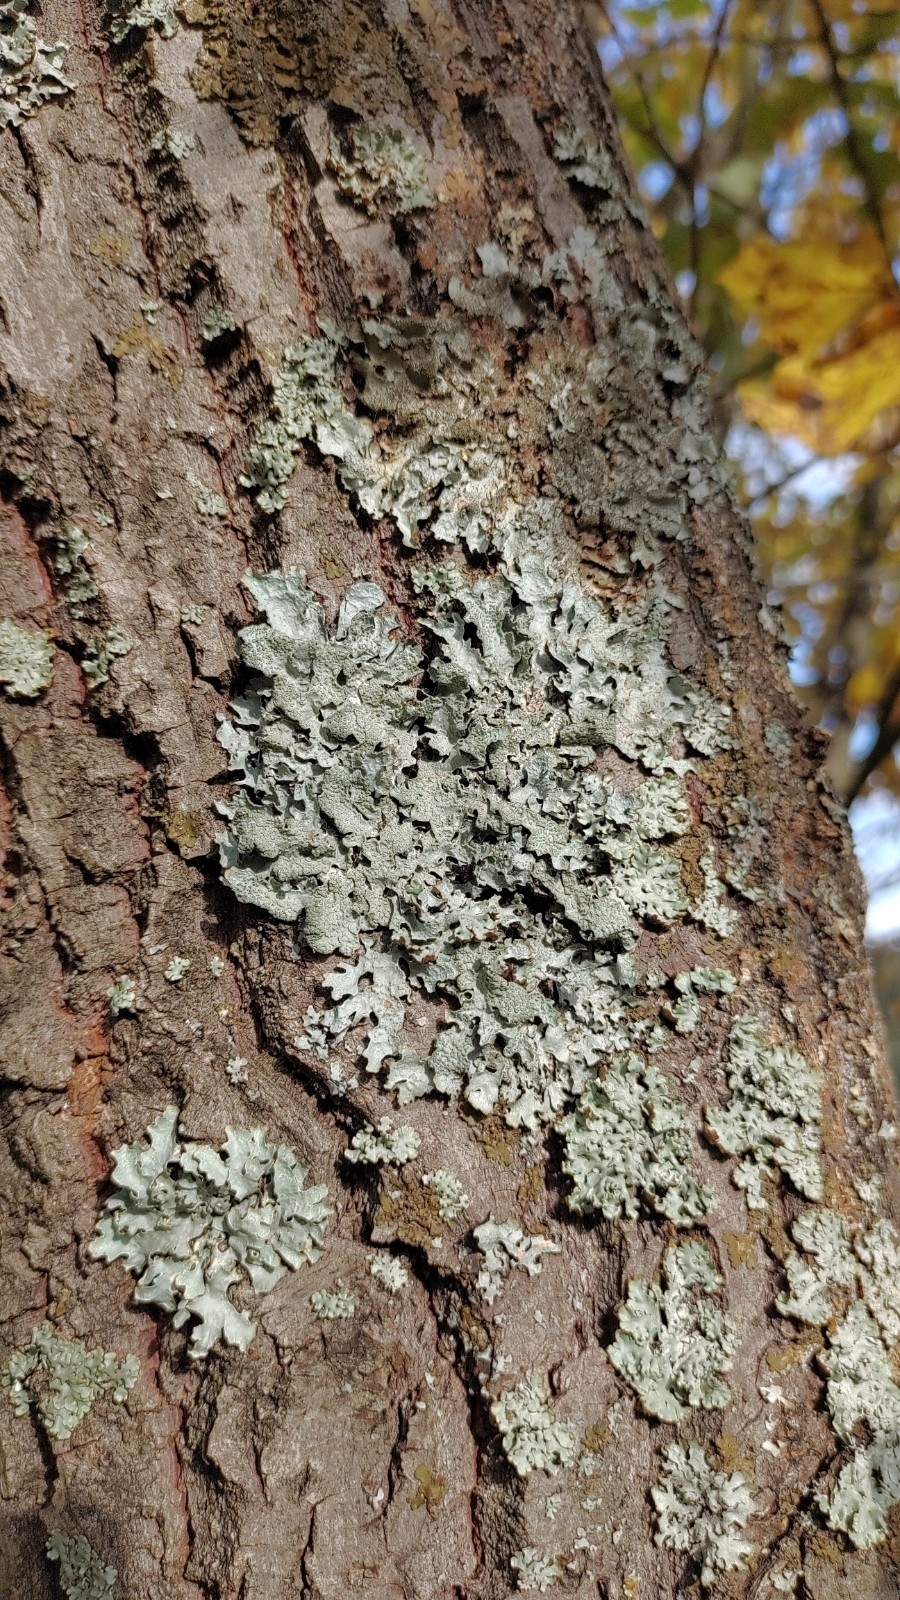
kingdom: Fungi
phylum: Ascomycota
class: Lecanoromycetes
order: Lecanorales
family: Parmeliaceae
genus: Parmelia
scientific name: Parmelia sulcata
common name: Netted shield lichen
